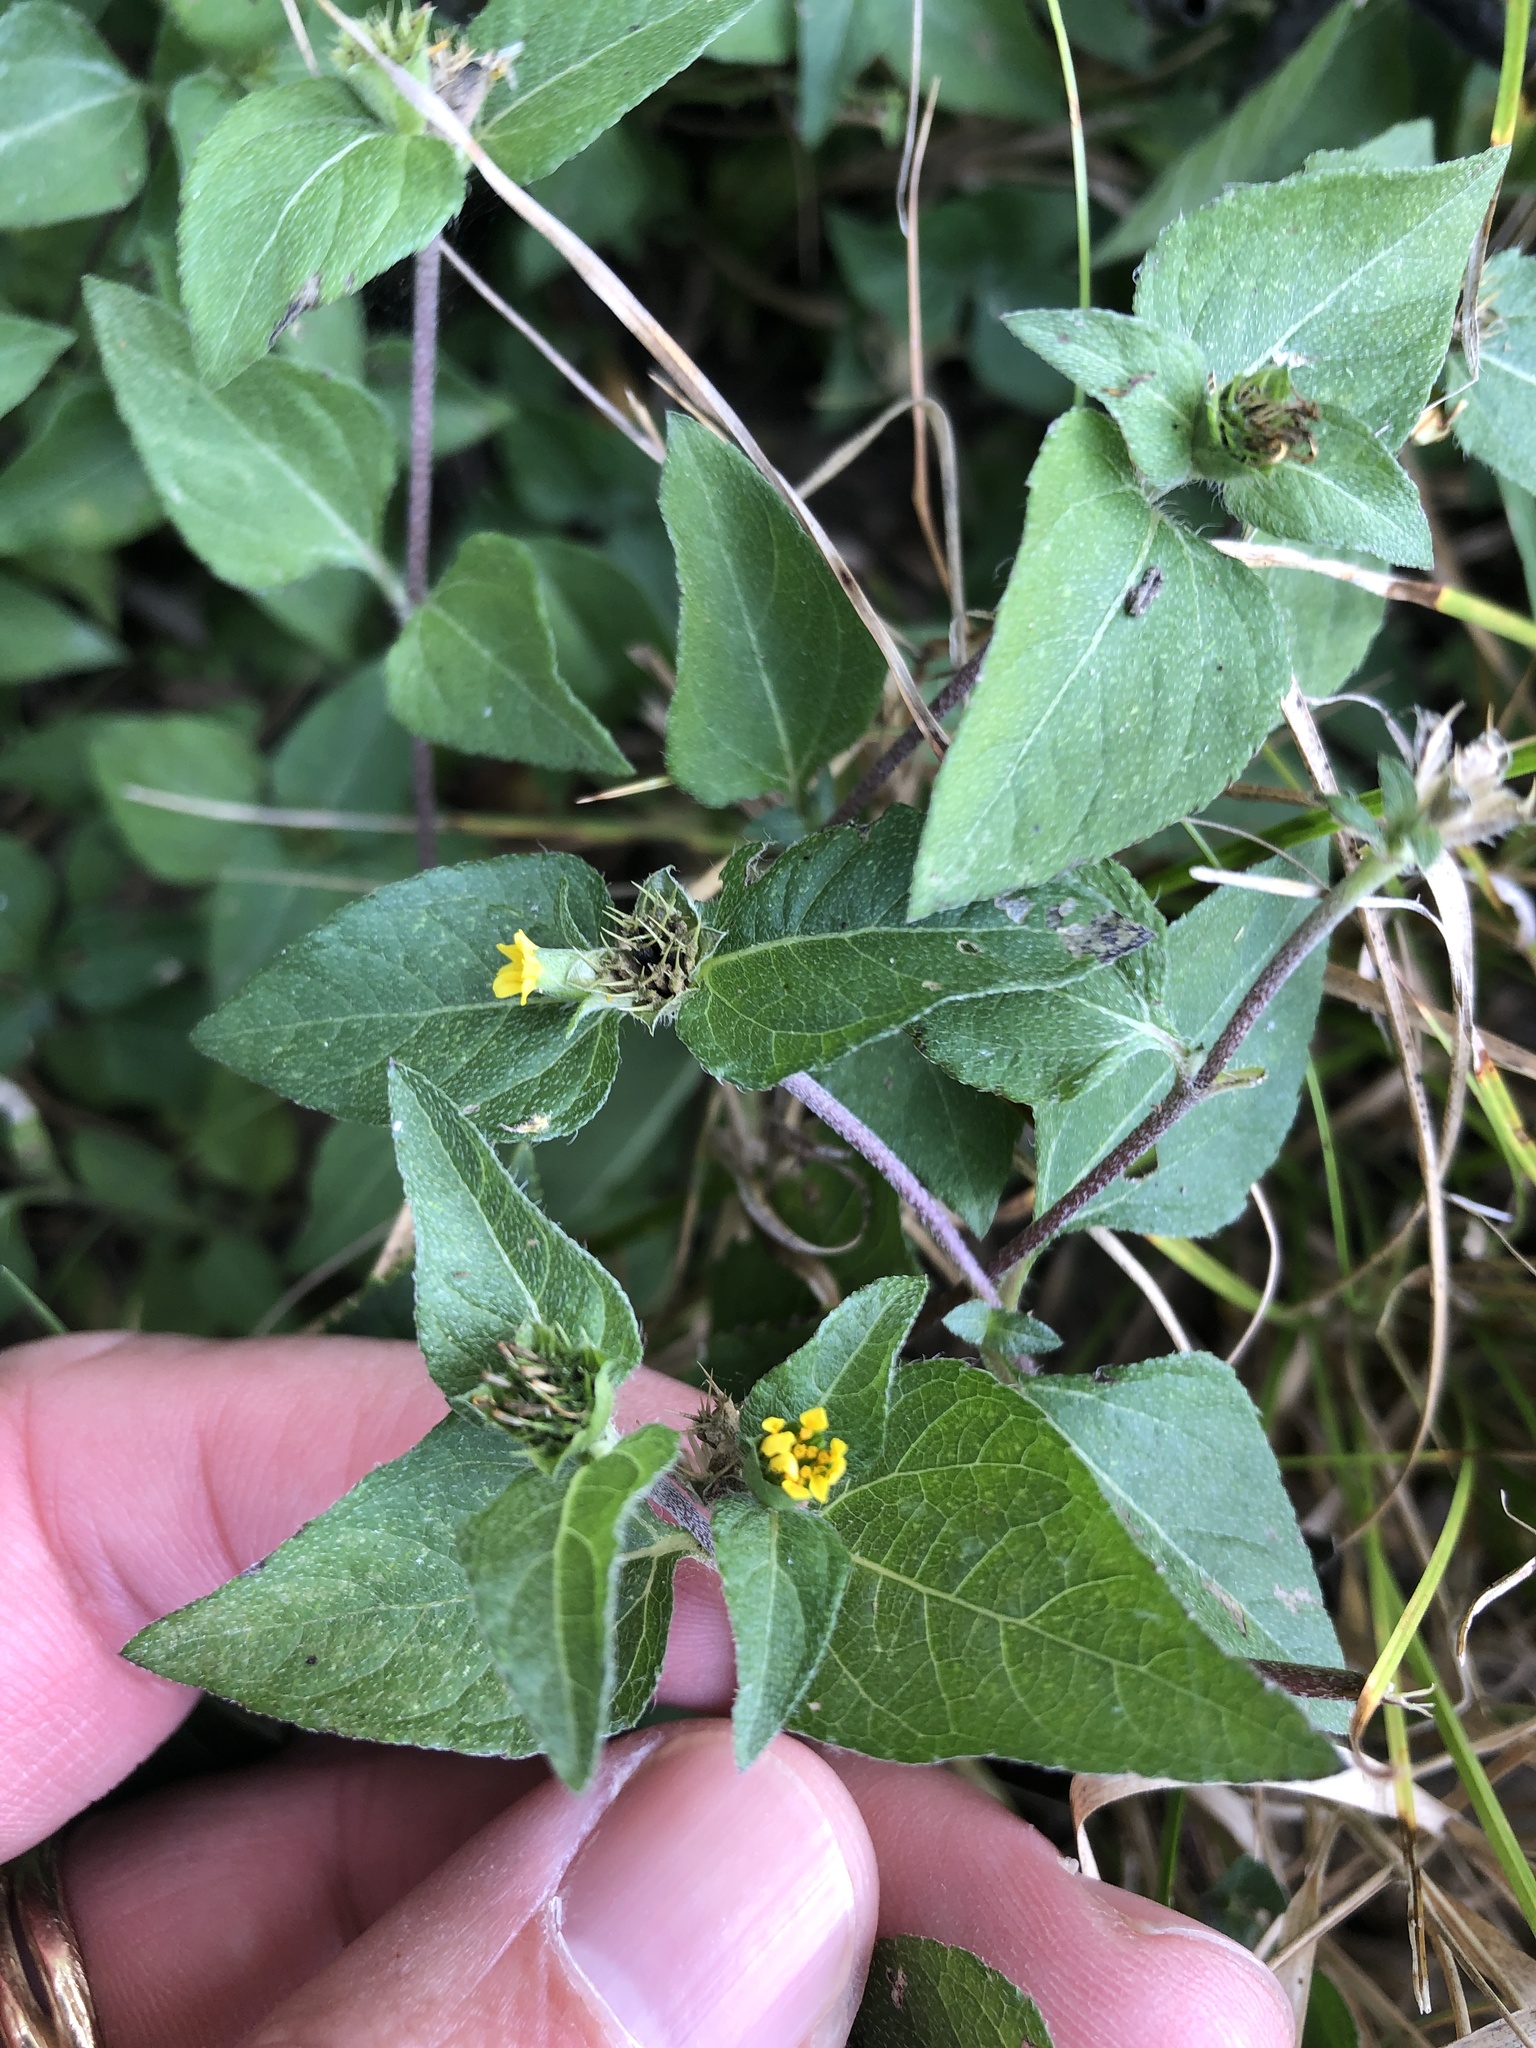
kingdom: Plantae
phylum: Tracheophyta
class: Magnoliopsida
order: Asterales
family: Asteraceae
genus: Calyptocarpus
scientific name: Calyptocarpus vialis
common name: Straggler daisy
